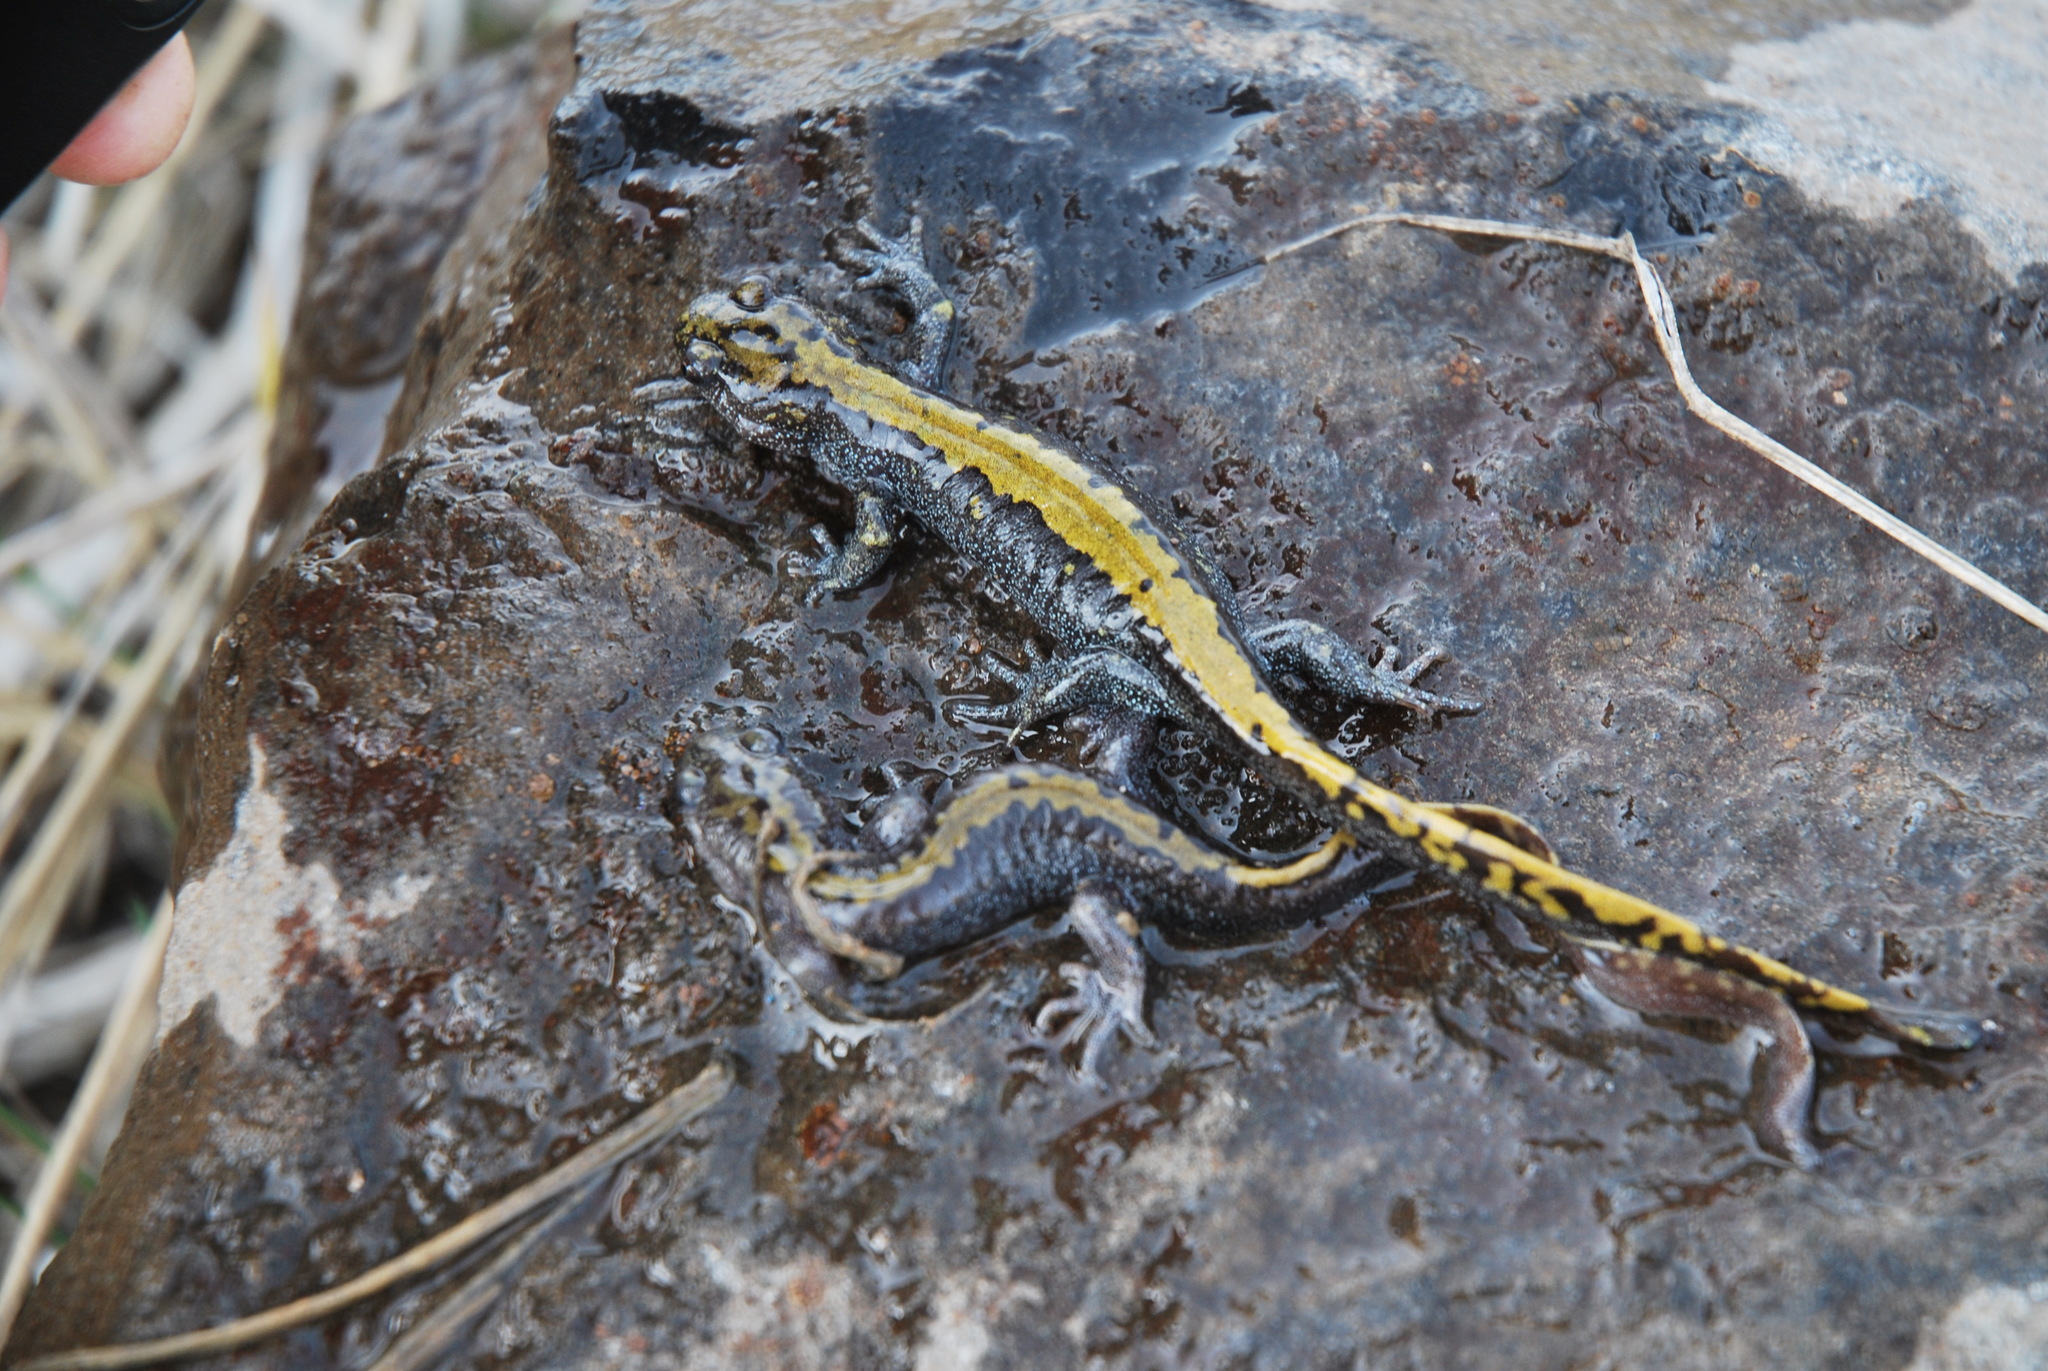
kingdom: Animalia
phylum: Chordata
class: Amphibia
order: Caudata
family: Ambystomatidae
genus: Ambystoma
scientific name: Ambystoma macrodactylum
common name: Long-toed salamander
